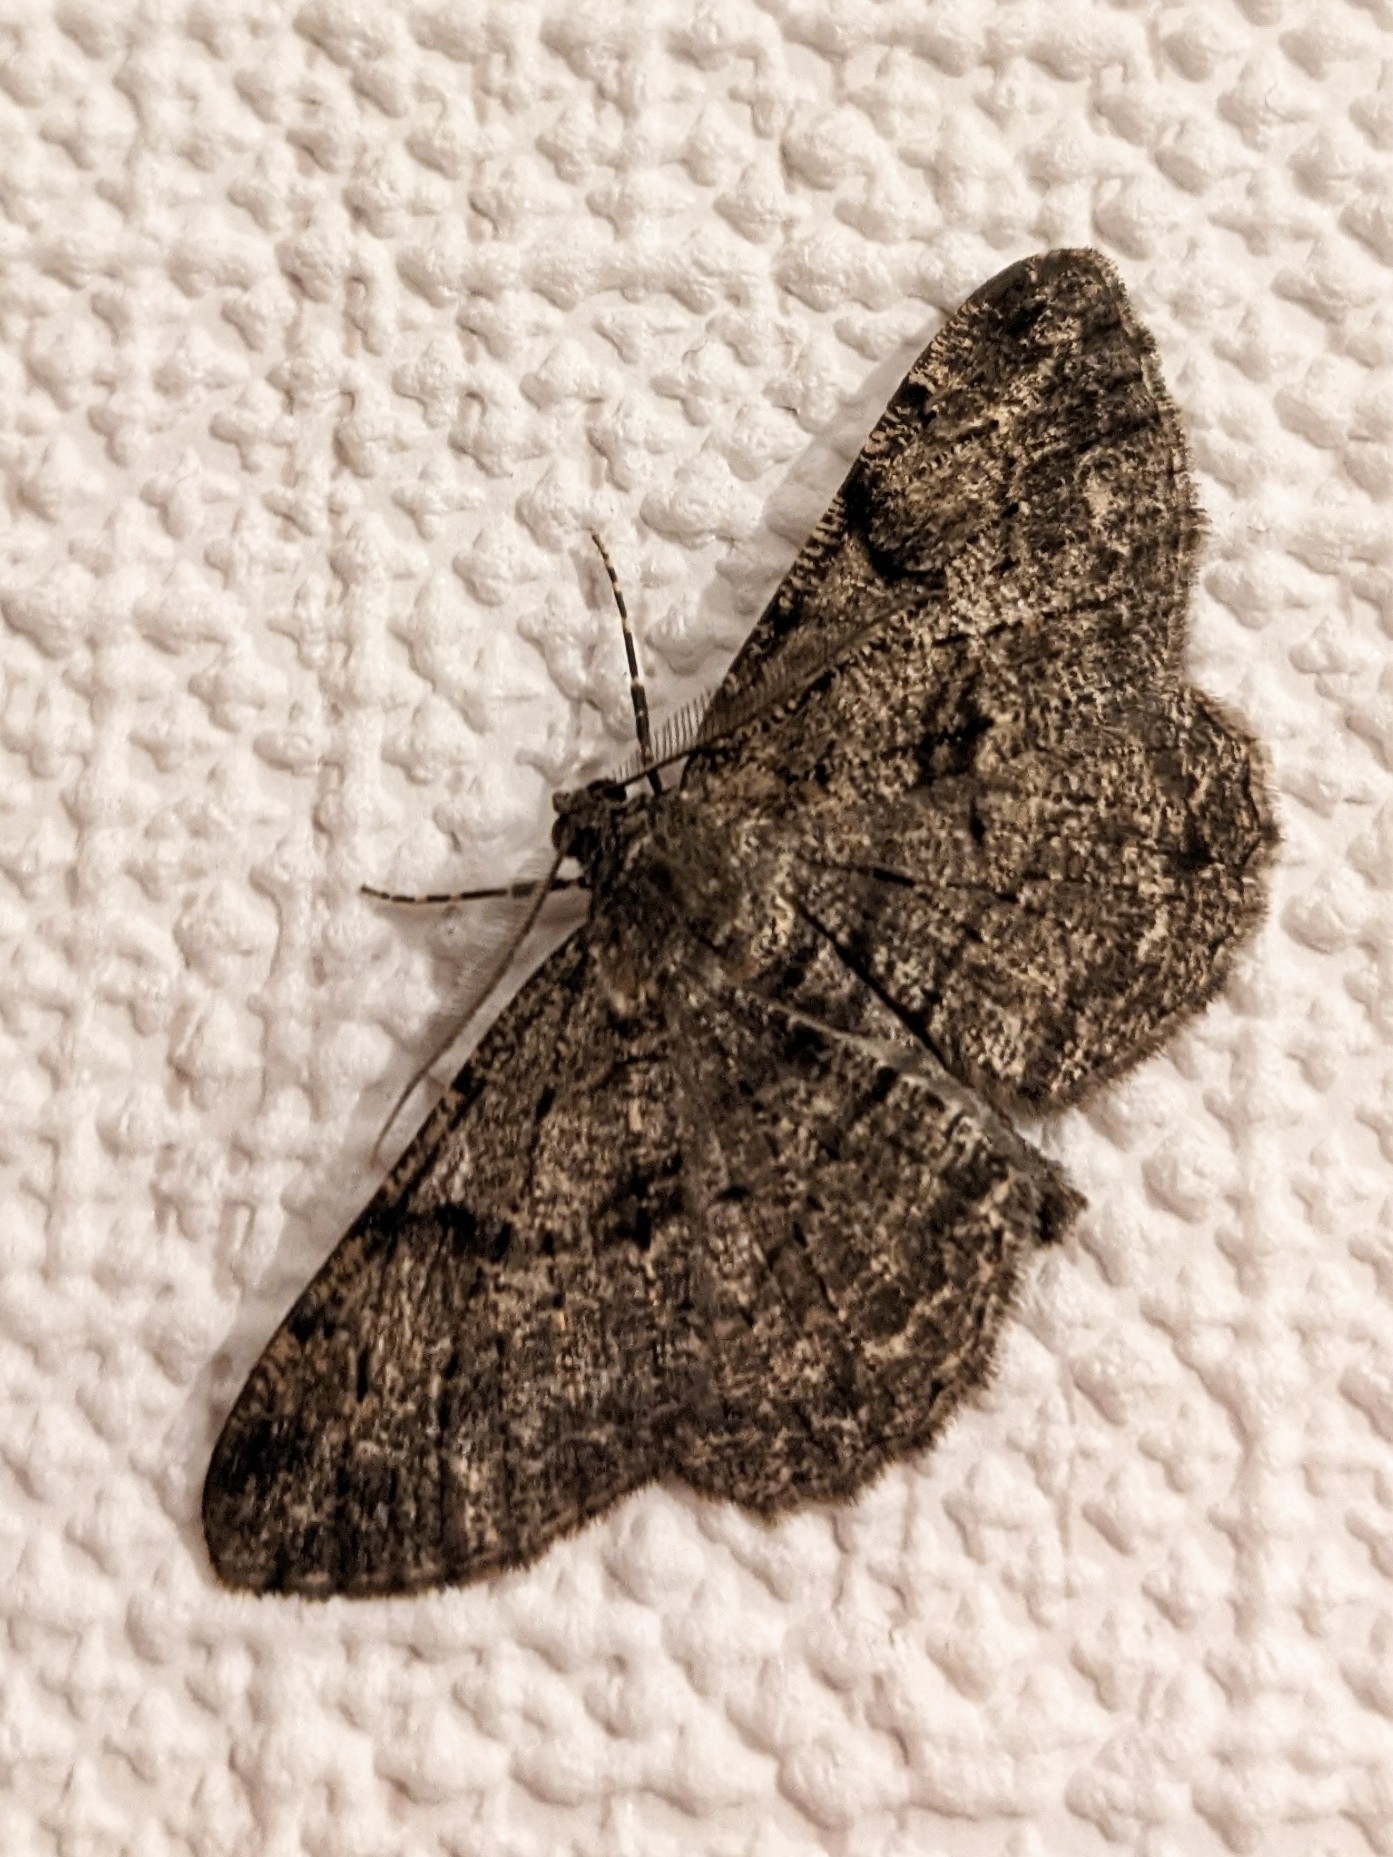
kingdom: Animalia
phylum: Arthropoda
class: Insecta
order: Lepidoptera
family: Geometridae
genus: Peribatodes
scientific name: Peribatodes rhomboidaria
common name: Willow beauty
